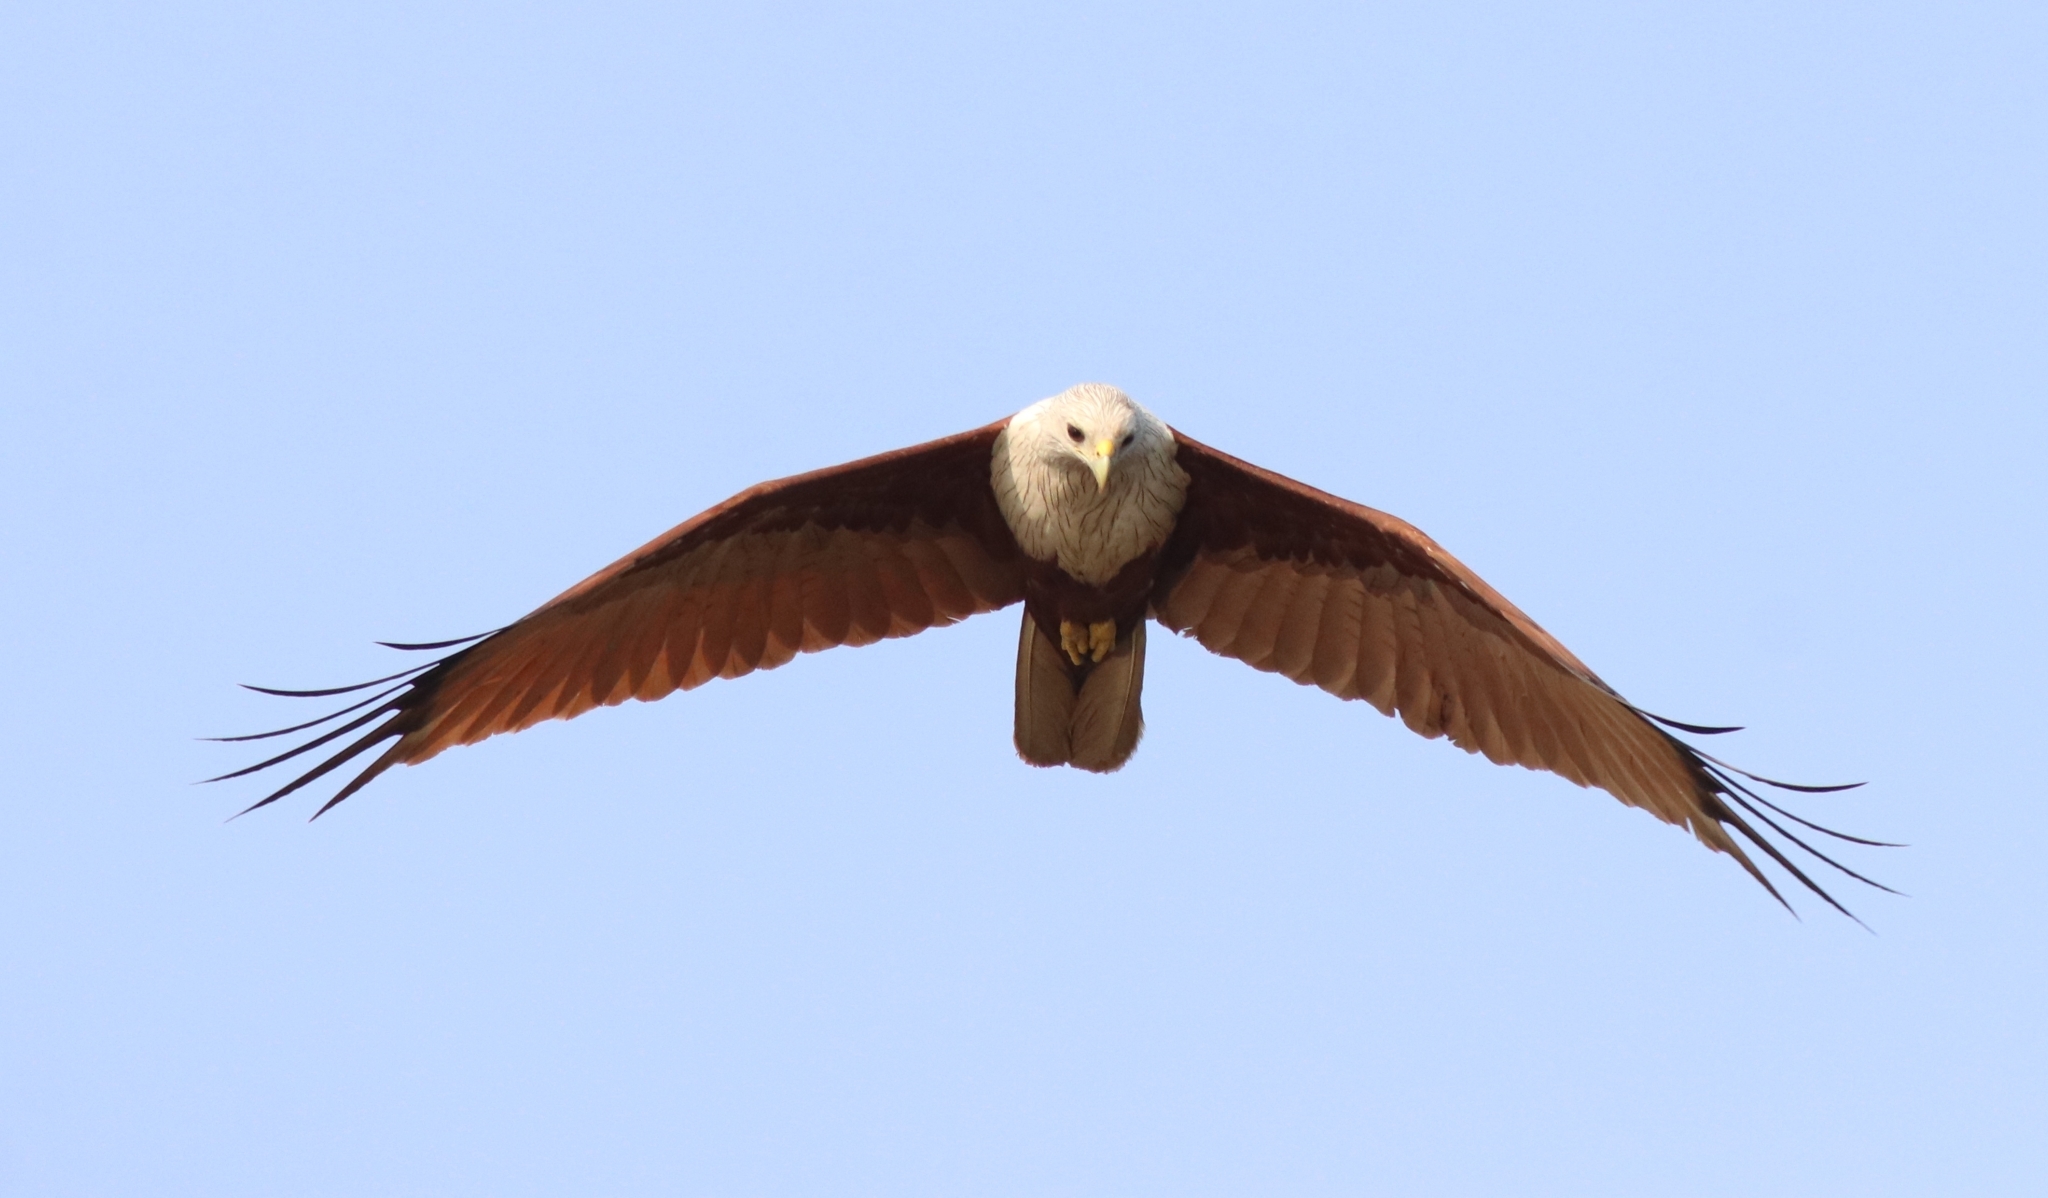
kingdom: Animalia
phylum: Chordata
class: Aves
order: Accipitriformes
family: Accipitridae
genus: Haliastur
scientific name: Haliastur indus
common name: Brahminy kite
